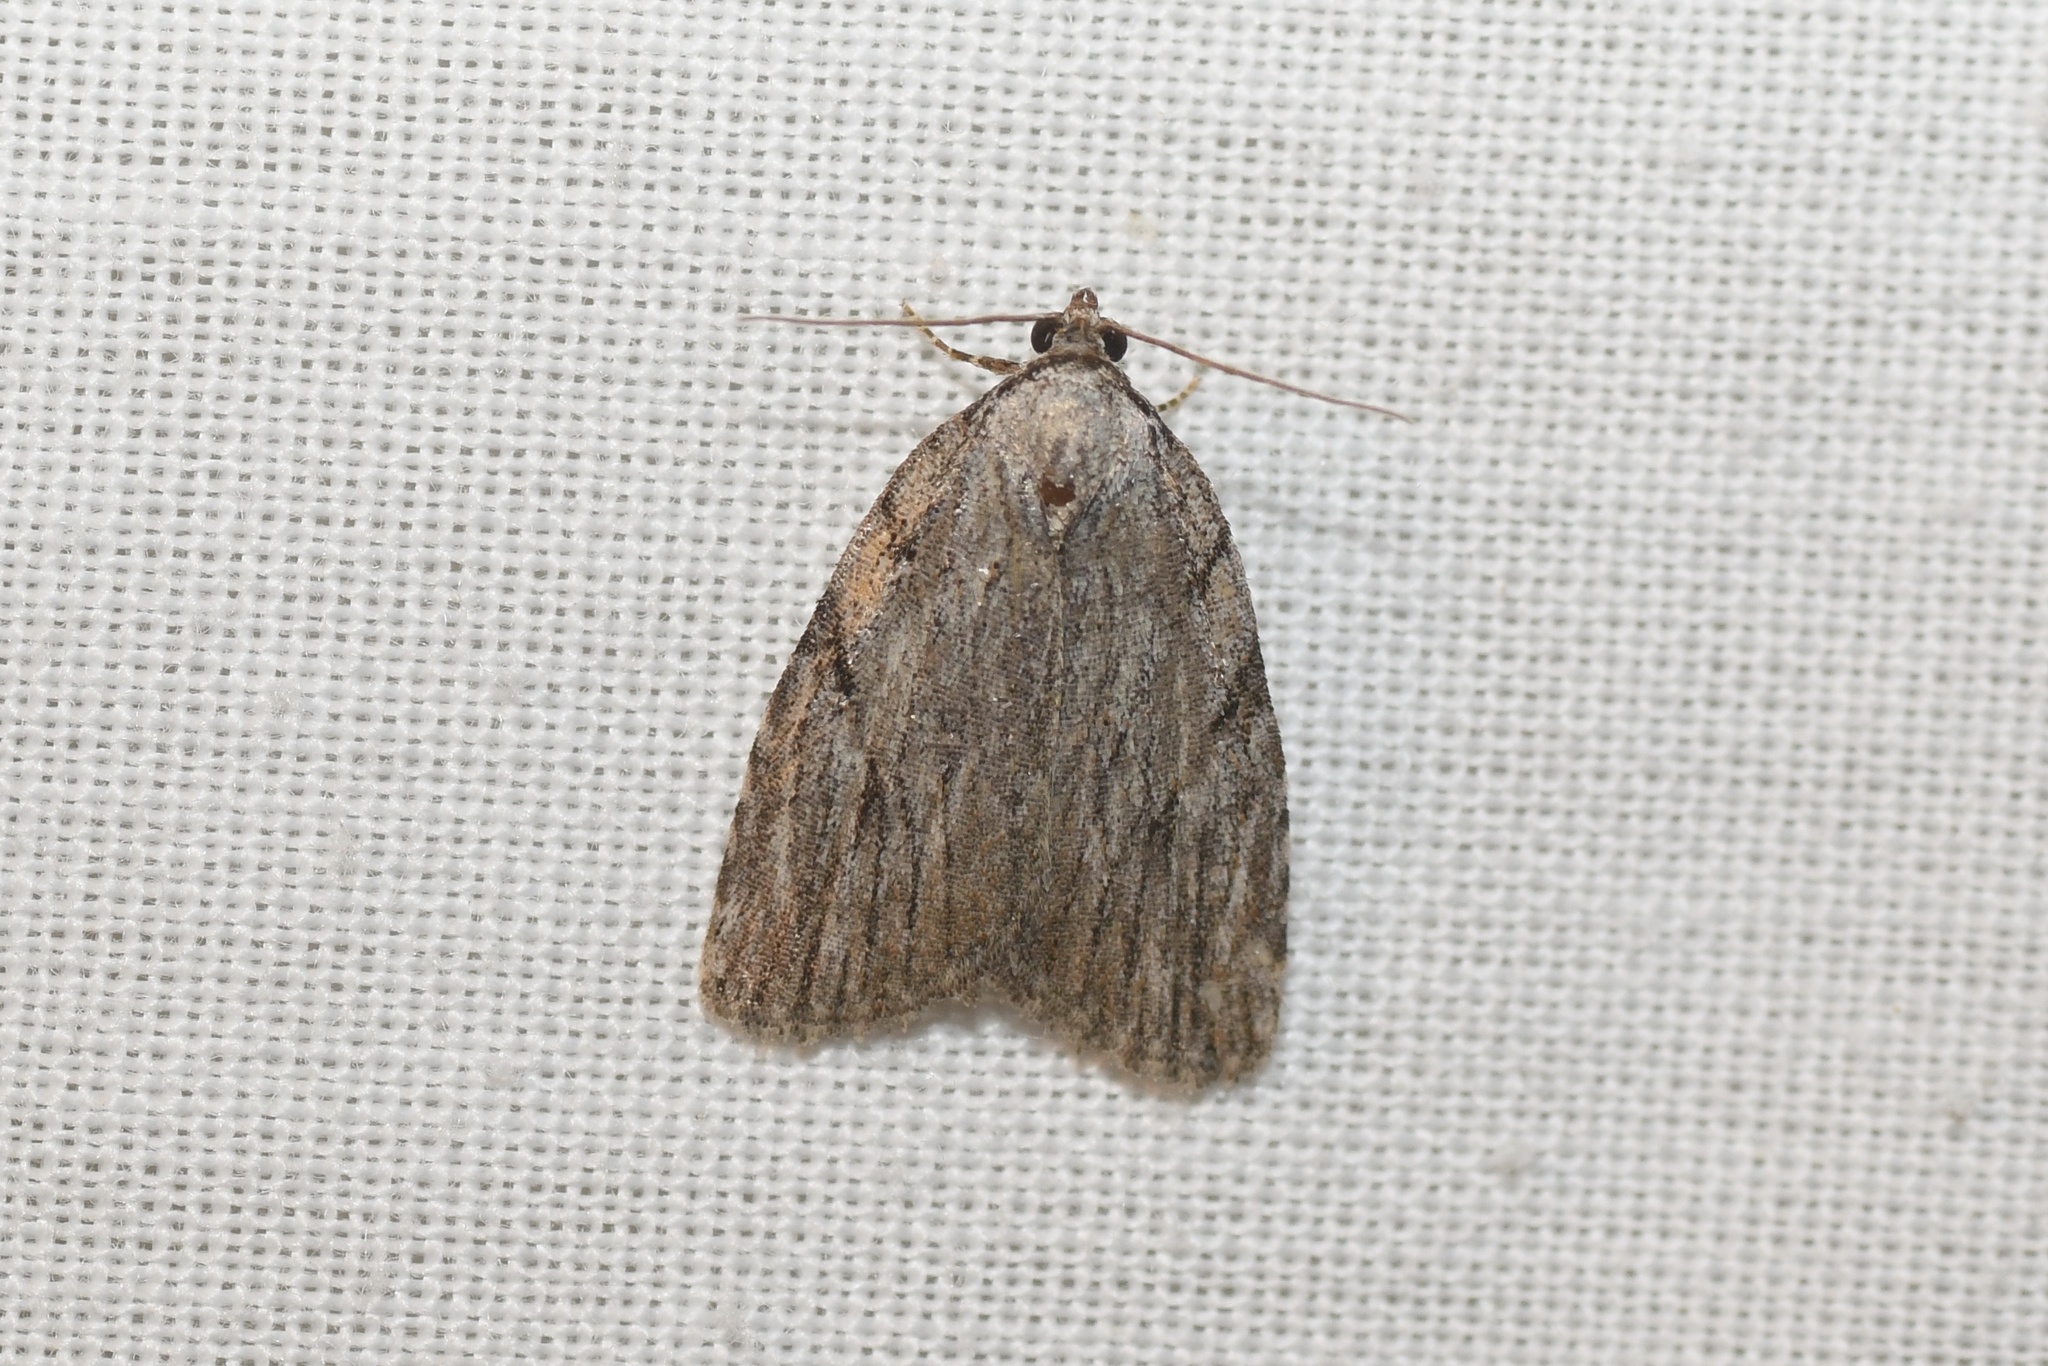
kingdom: Animalia
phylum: Arthropoda
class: Insecta
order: Lepidoptera
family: Noctuidae
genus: Balsa
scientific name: Balsa tristrigella
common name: Three-lined balsa moth
